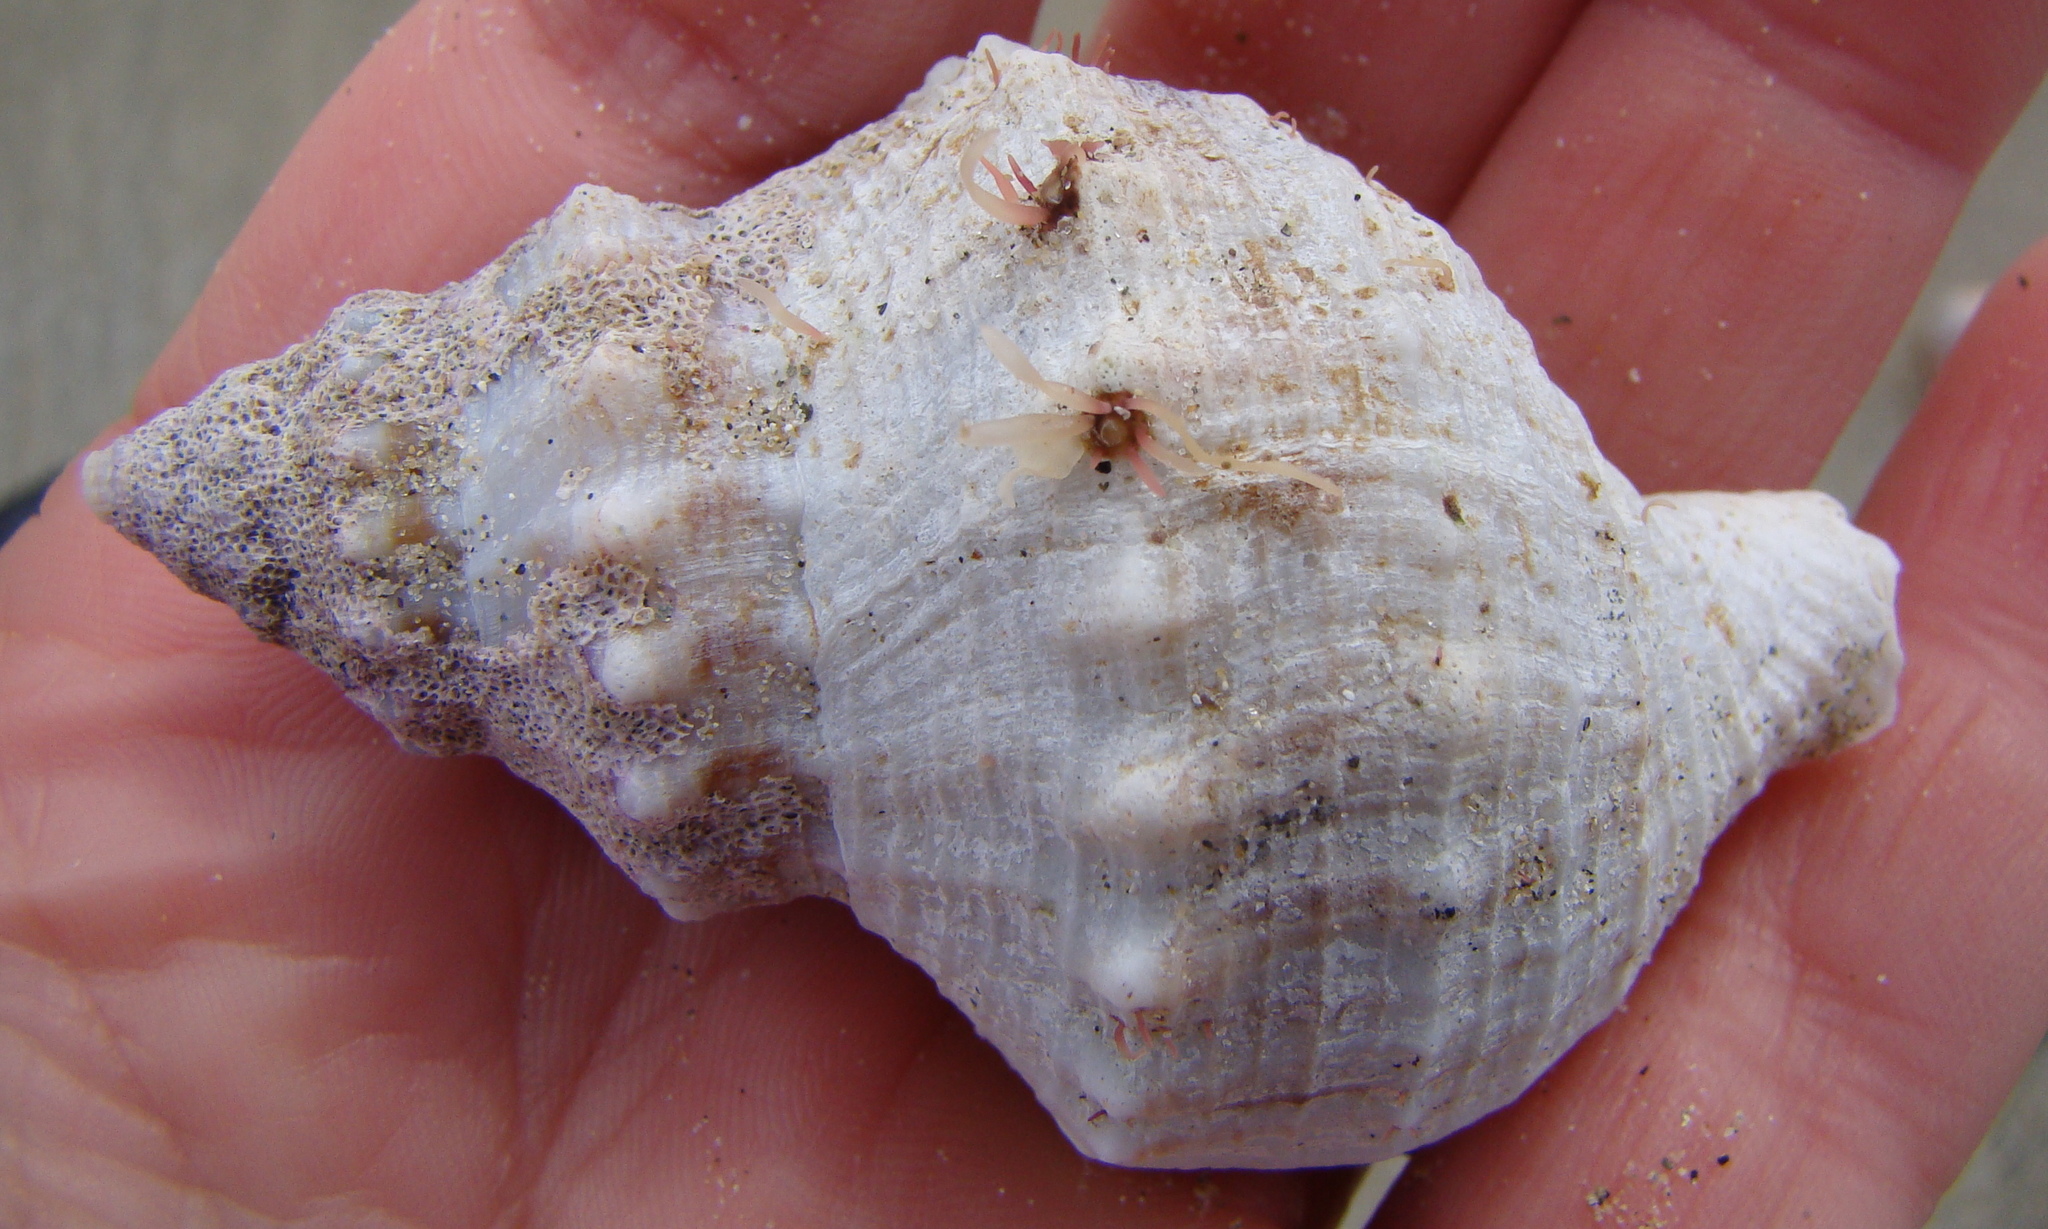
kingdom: Animalia
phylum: Mollusca
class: Gastropoda
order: Neogastropoda
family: Prosiphonidae
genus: Austrofusus
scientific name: Austrofusus glans
